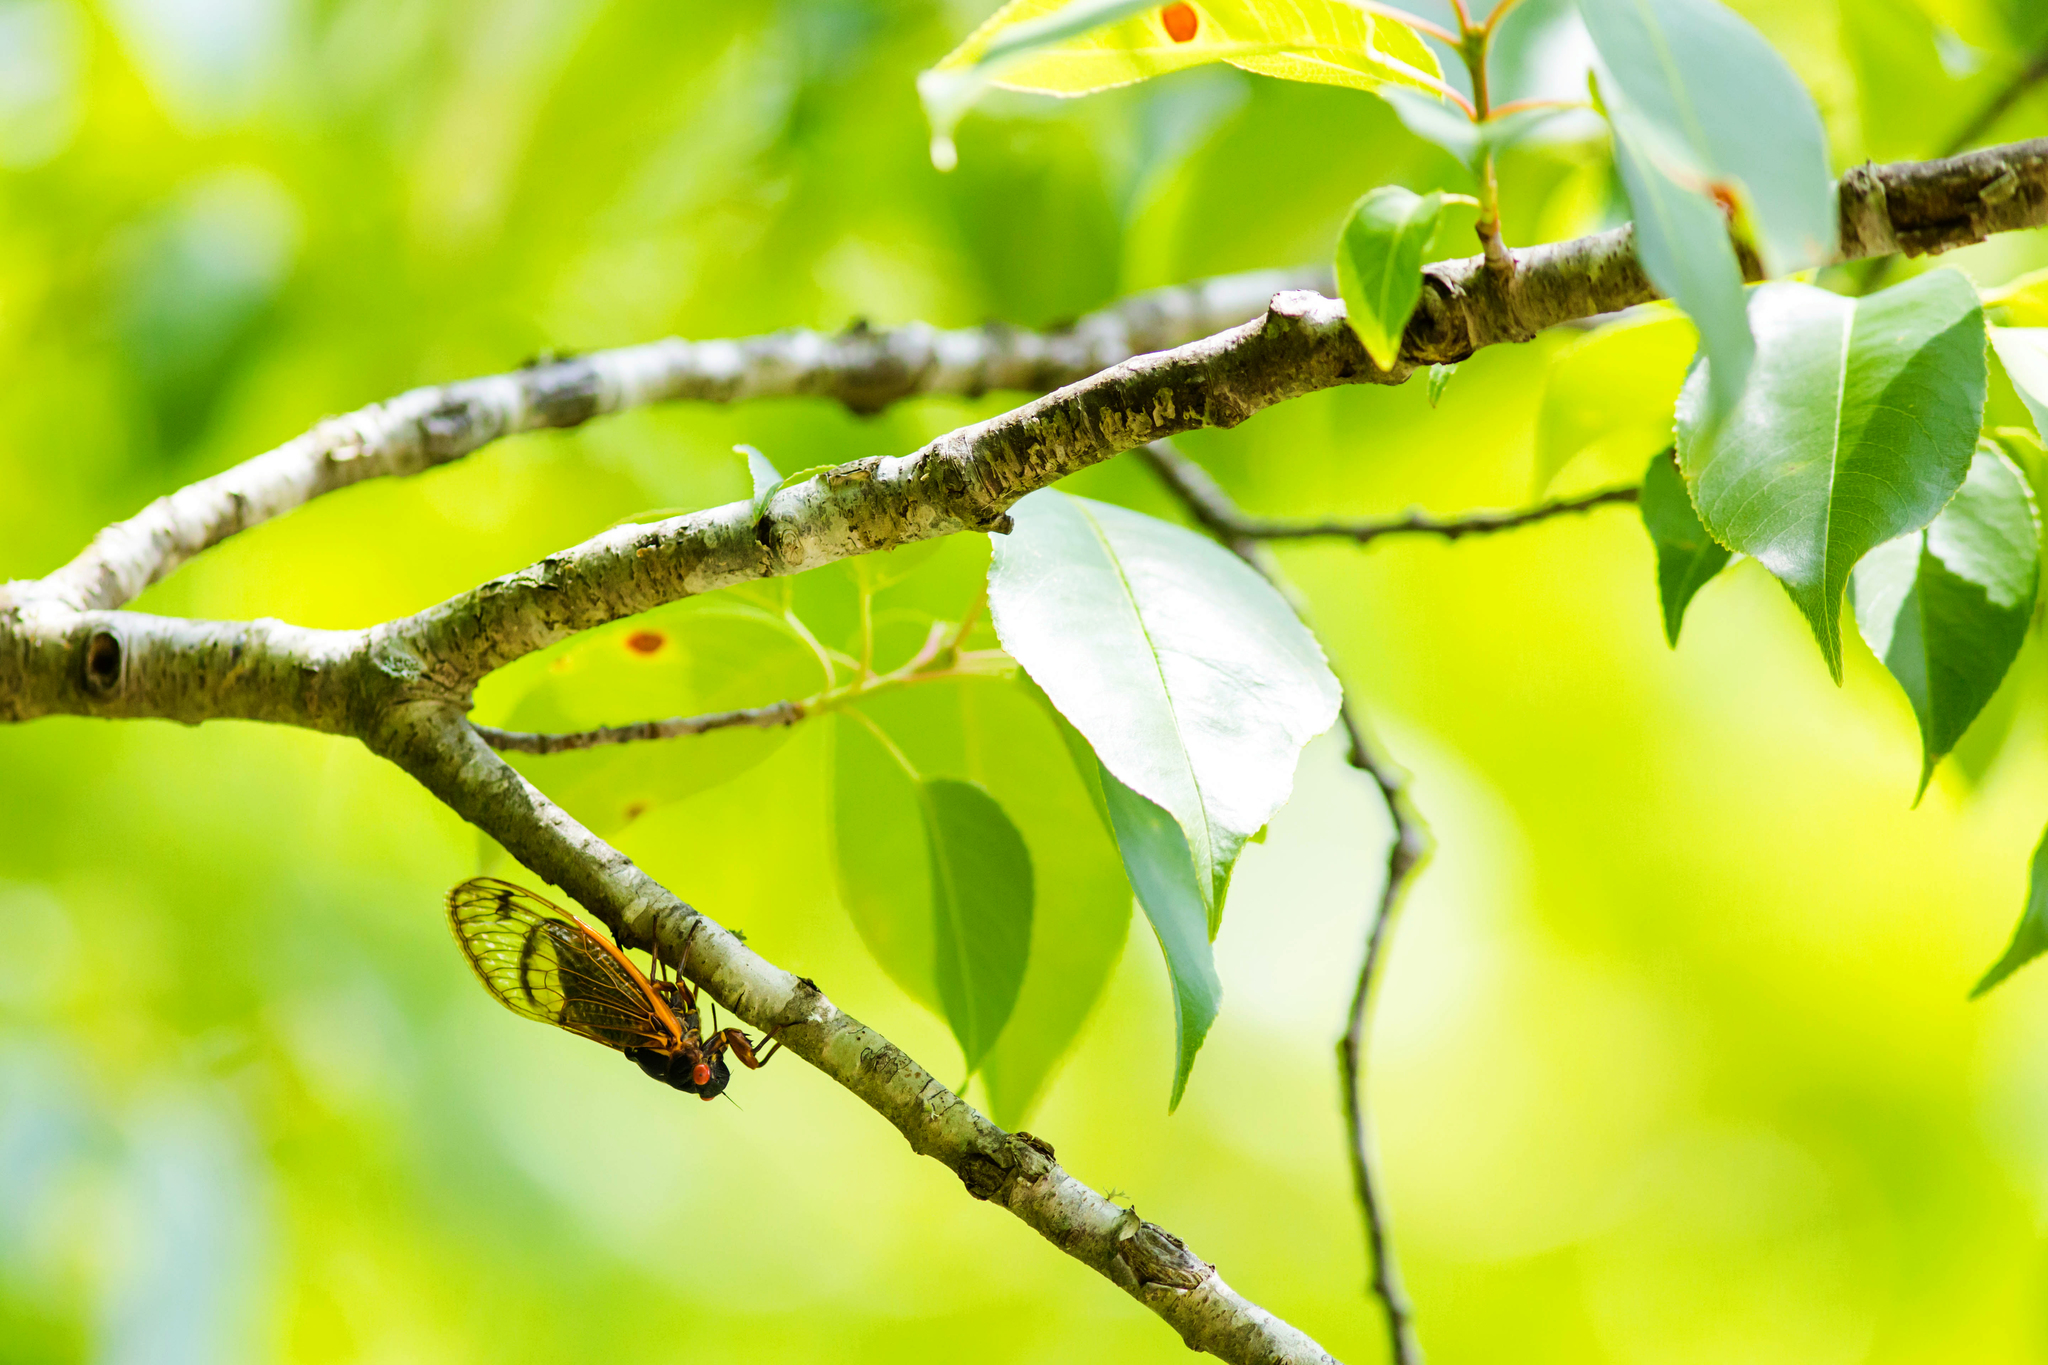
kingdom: Animalia
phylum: Arthropoda
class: Insecta
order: Hemiptera
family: Cicadidae
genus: Magicicada
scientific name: Magicicada tredecim
